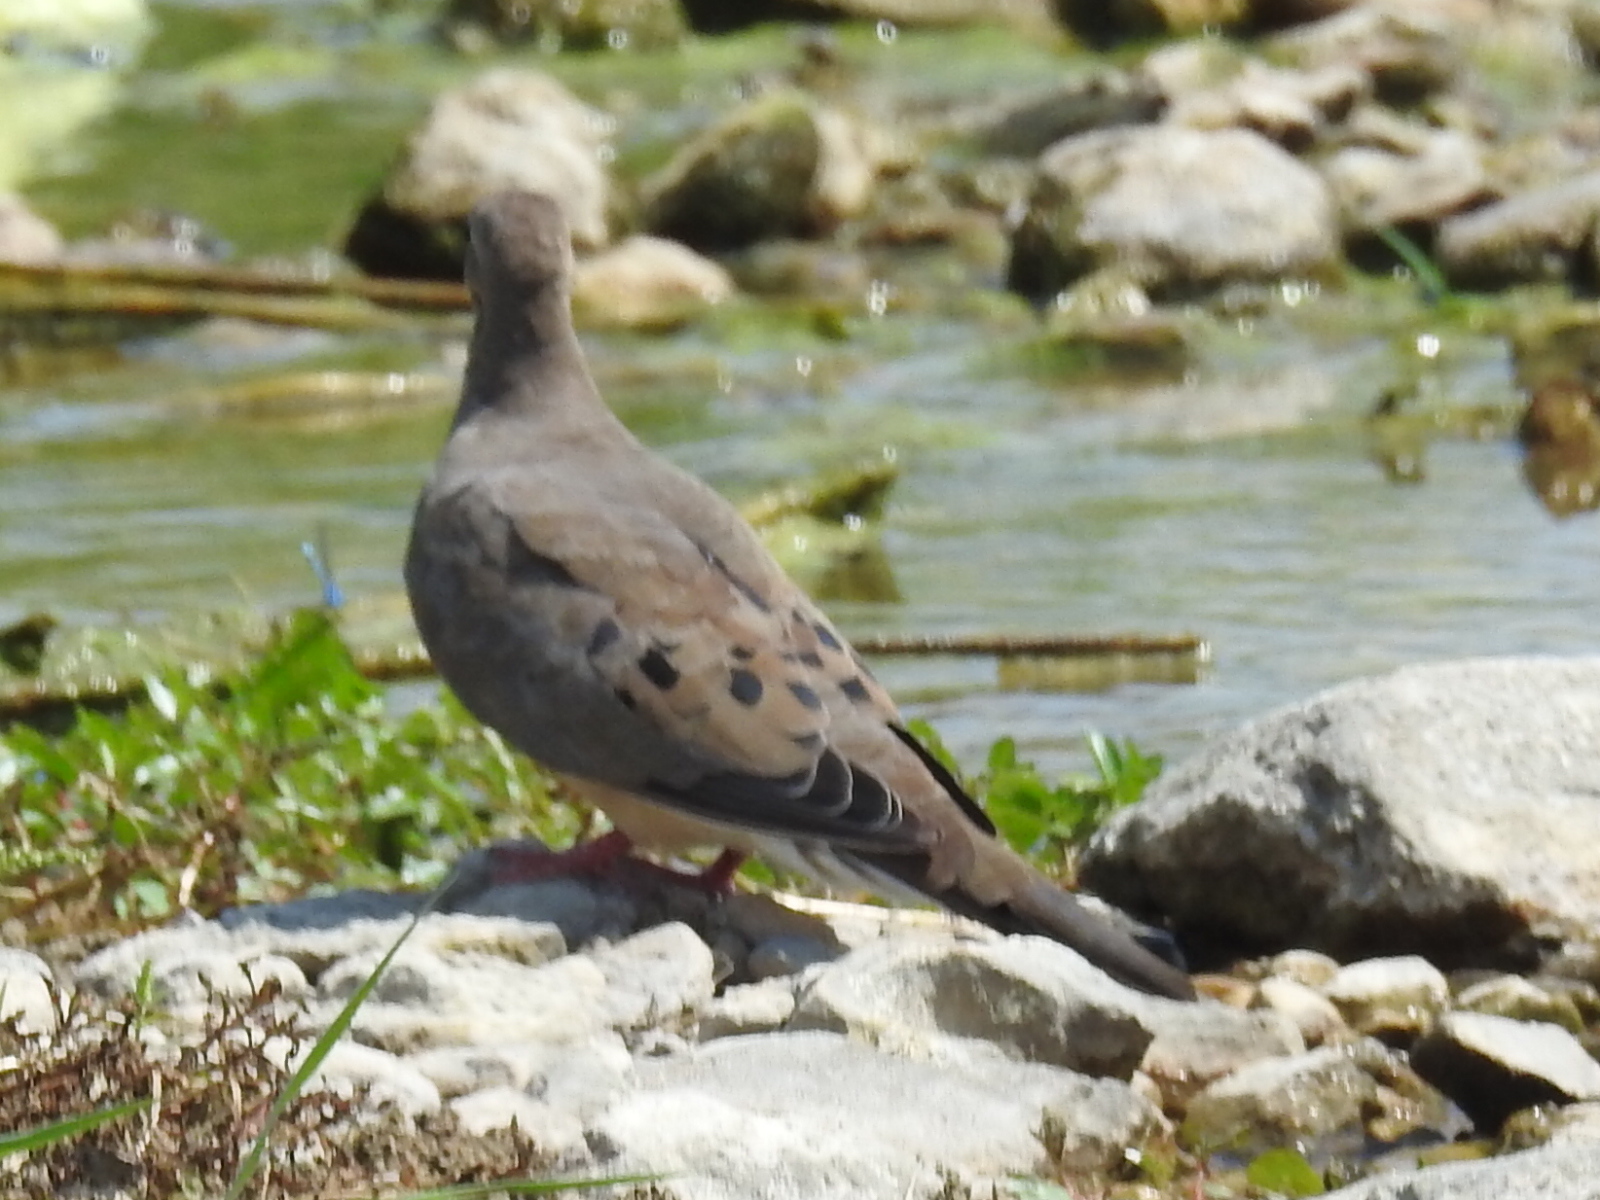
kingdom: Animalia
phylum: Chordata
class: Aves
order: Columbiformes
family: Columbidae
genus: Zenaida
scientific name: Zenaida macroura
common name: Mourning dove
